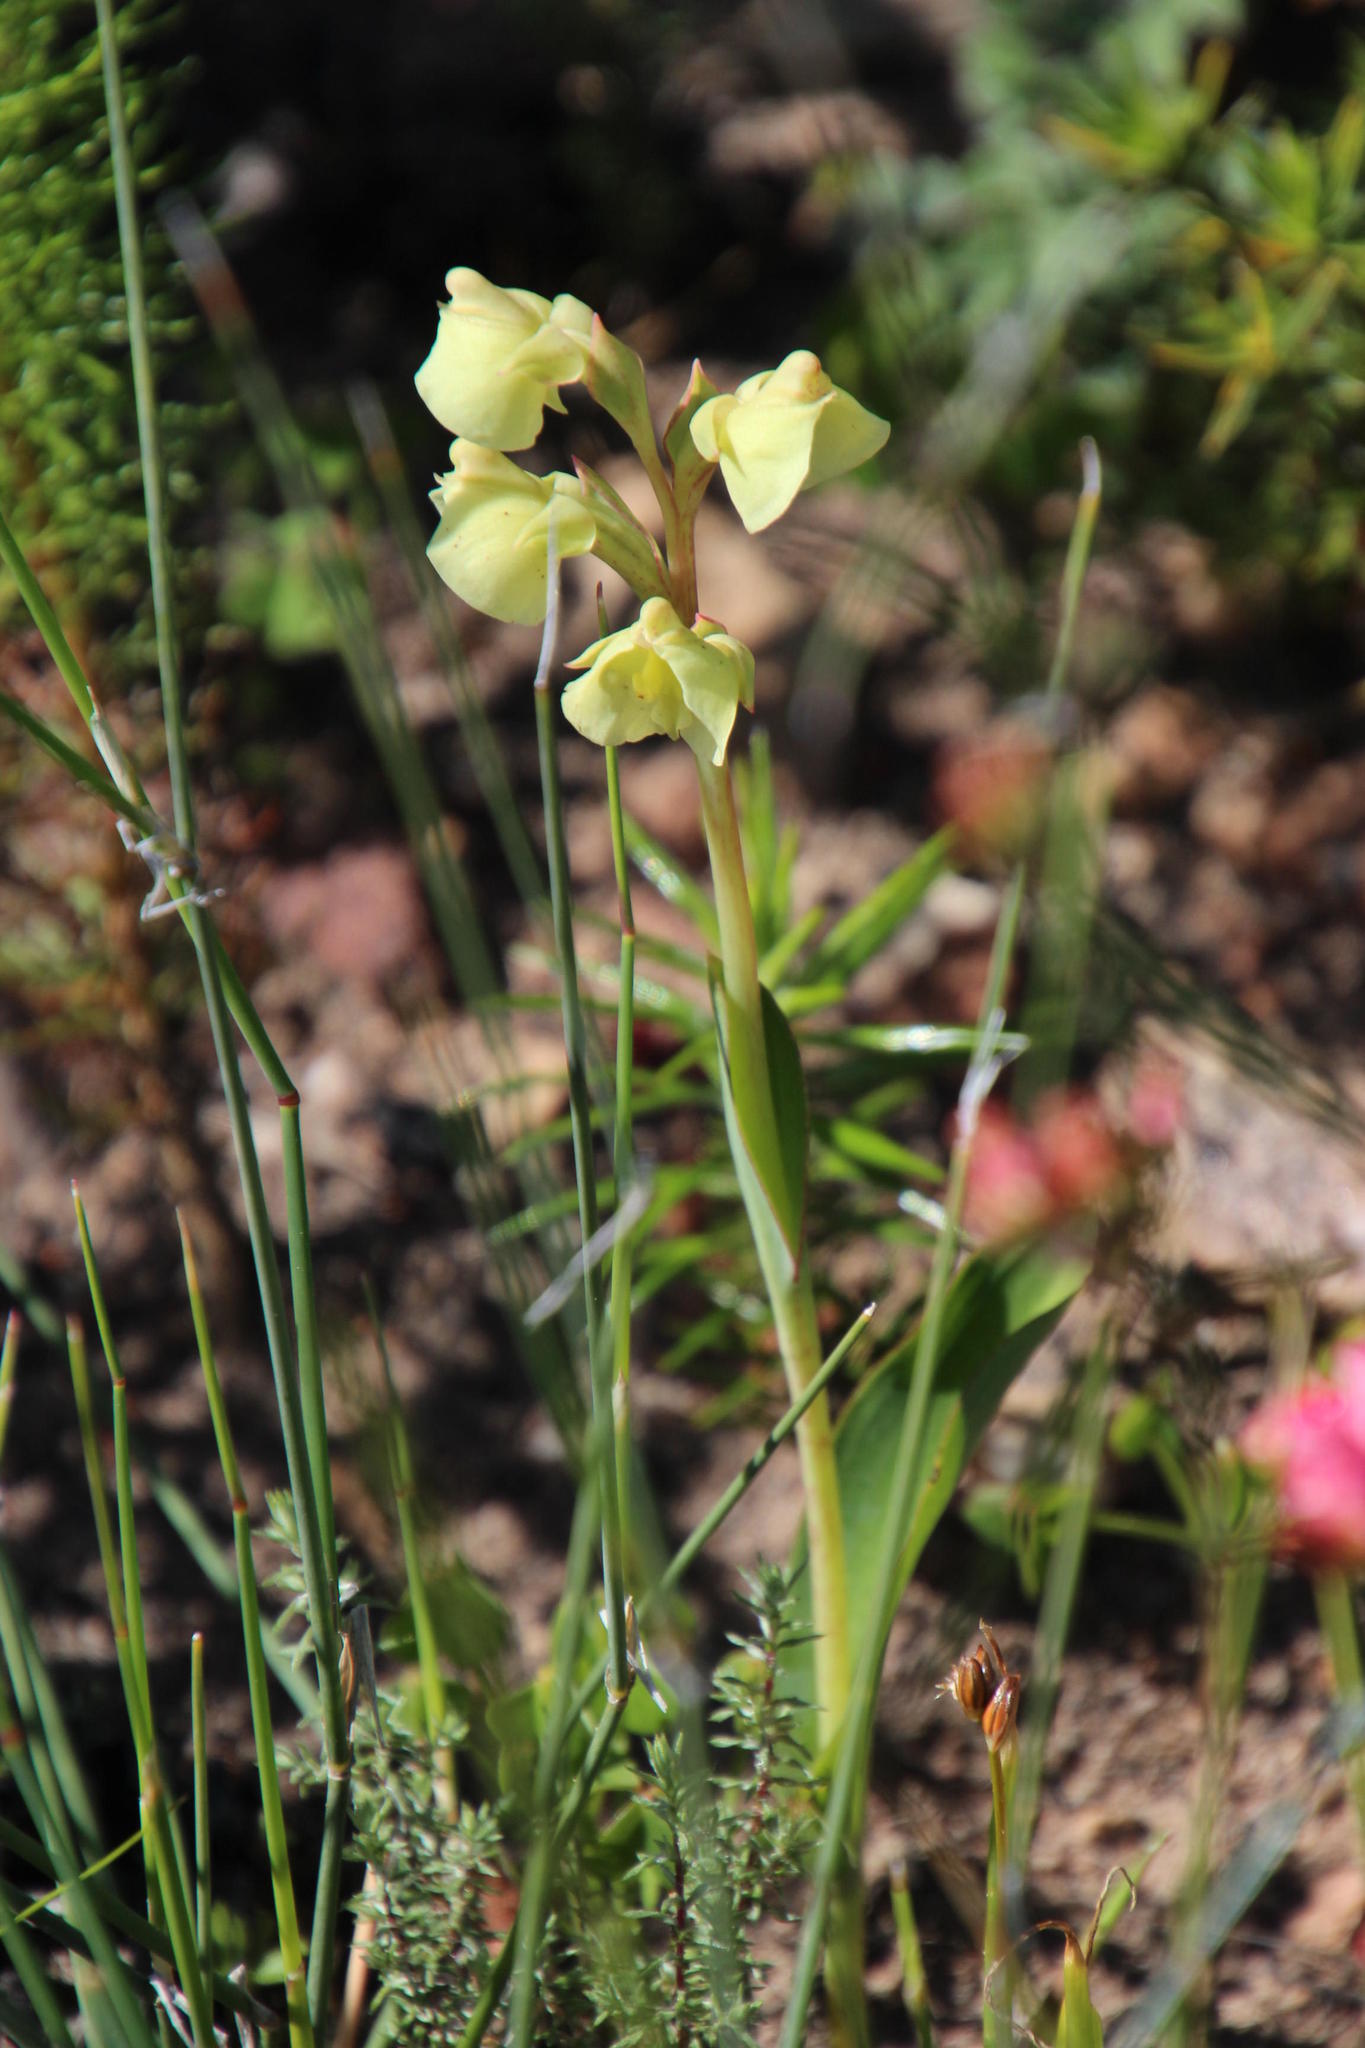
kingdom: Plantae
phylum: Tracheophyta
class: Liliopsida
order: Asparagales
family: Orchidaceae
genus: Pterygodium
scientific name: Pterygodium catholicum
